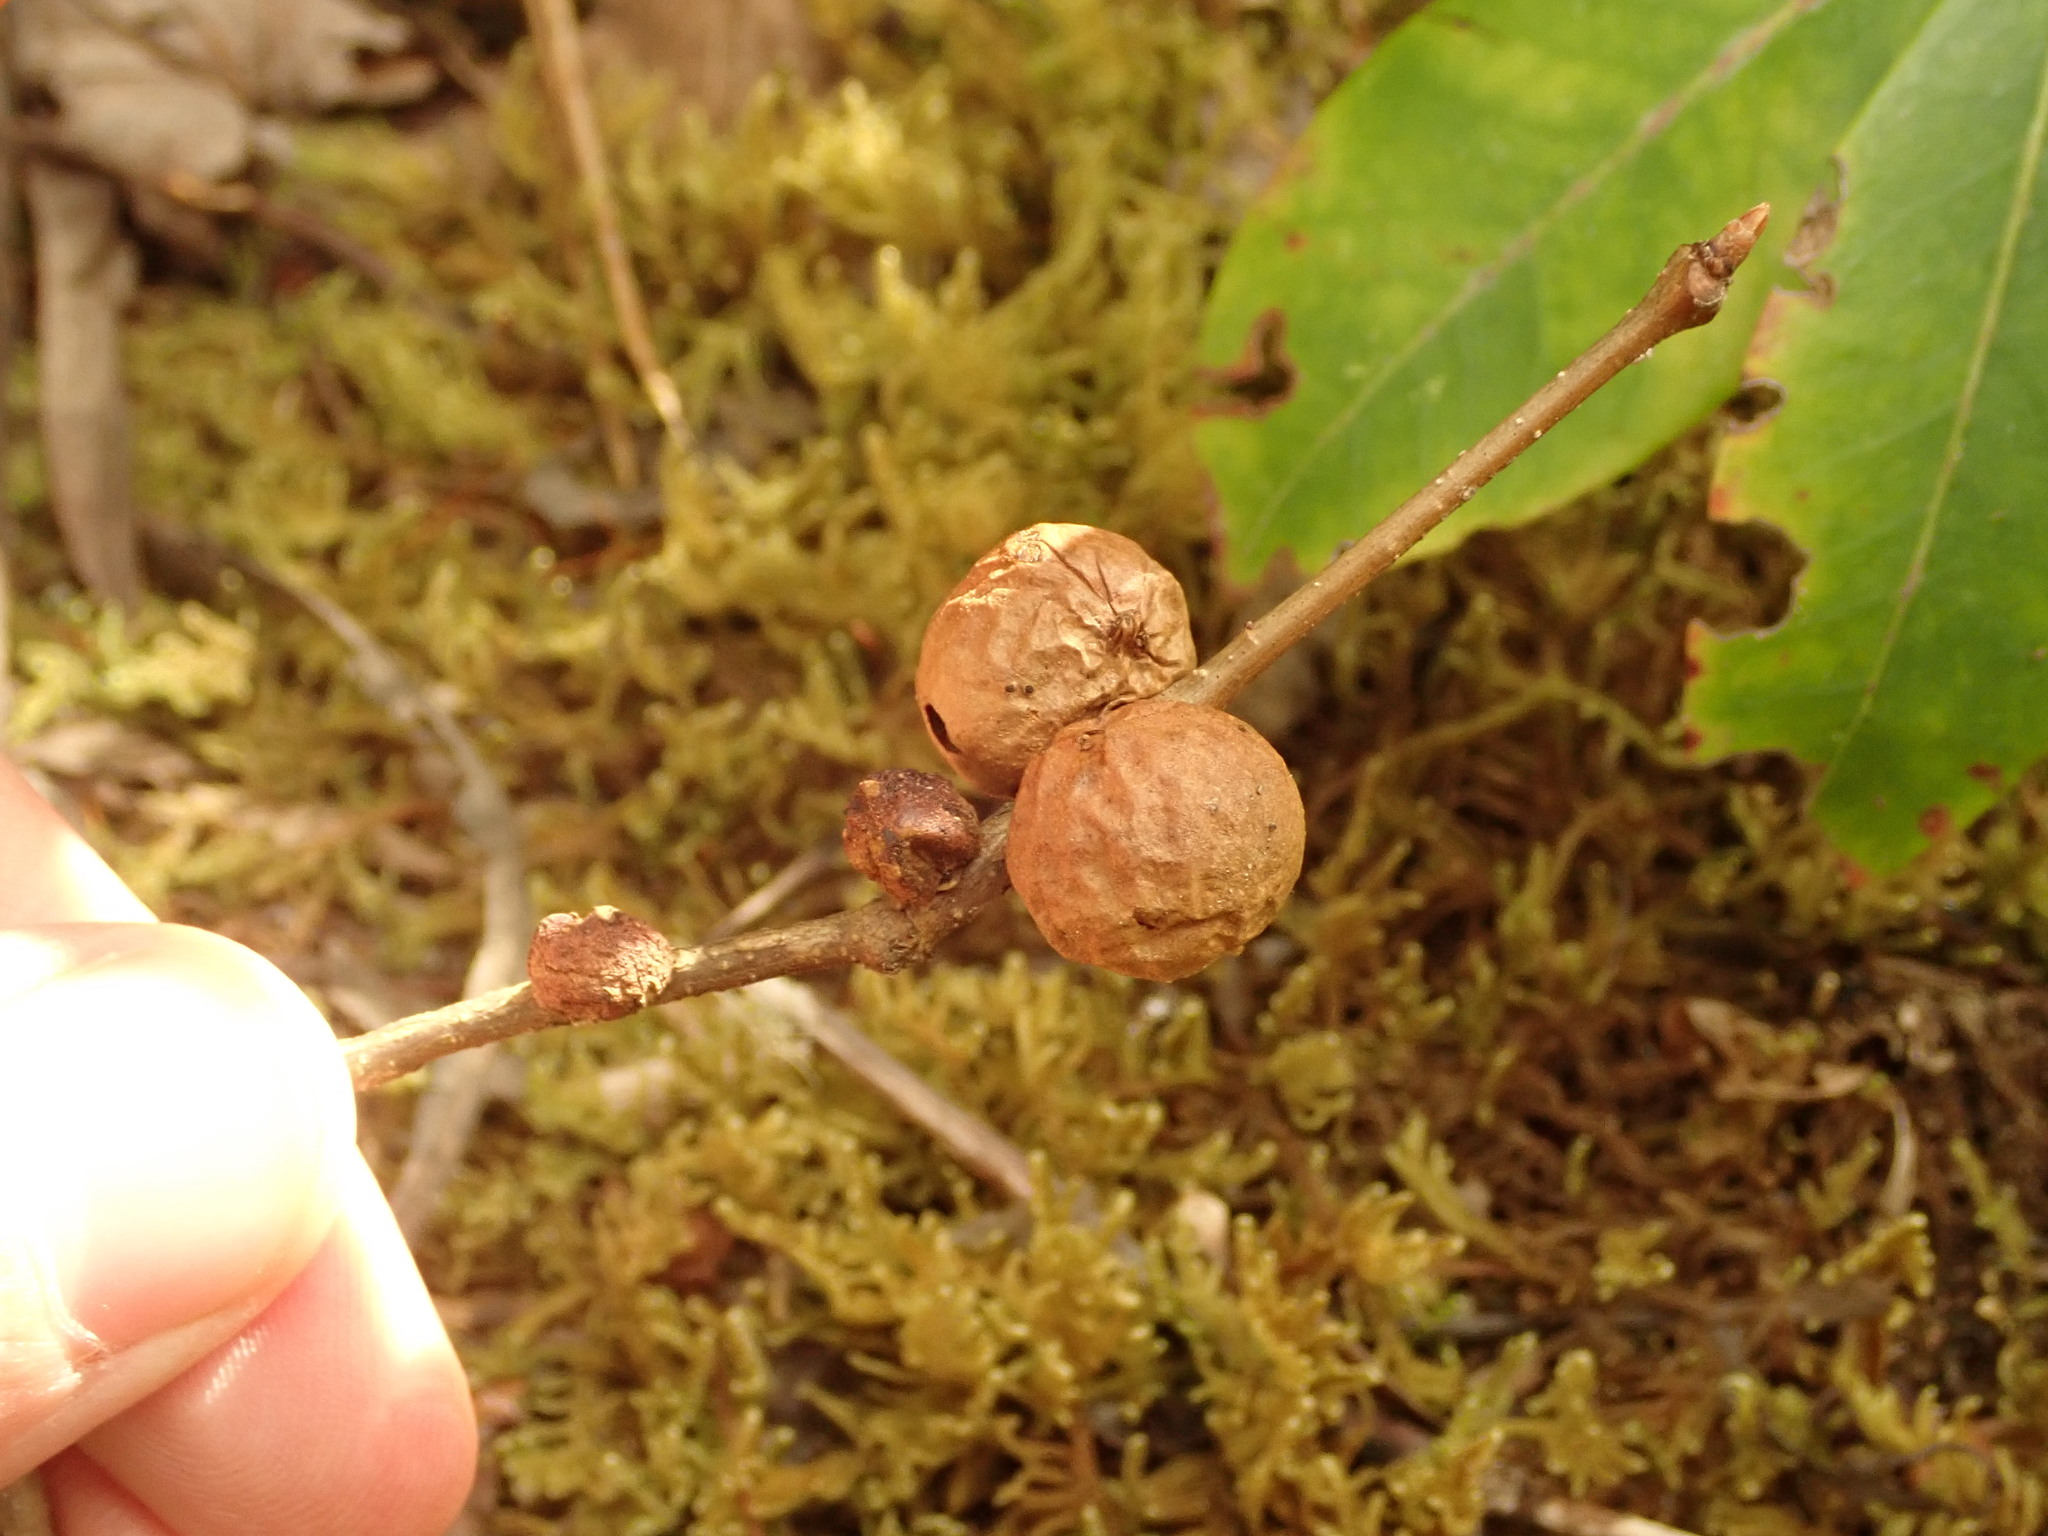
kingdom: Animalia
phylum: Arthropoda
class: Insecta
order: Hymenoptera
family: Cynipidae
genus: Disholcaspis
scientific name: Disholcaspis quercusglobulus
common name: Round bullet gall wasp
